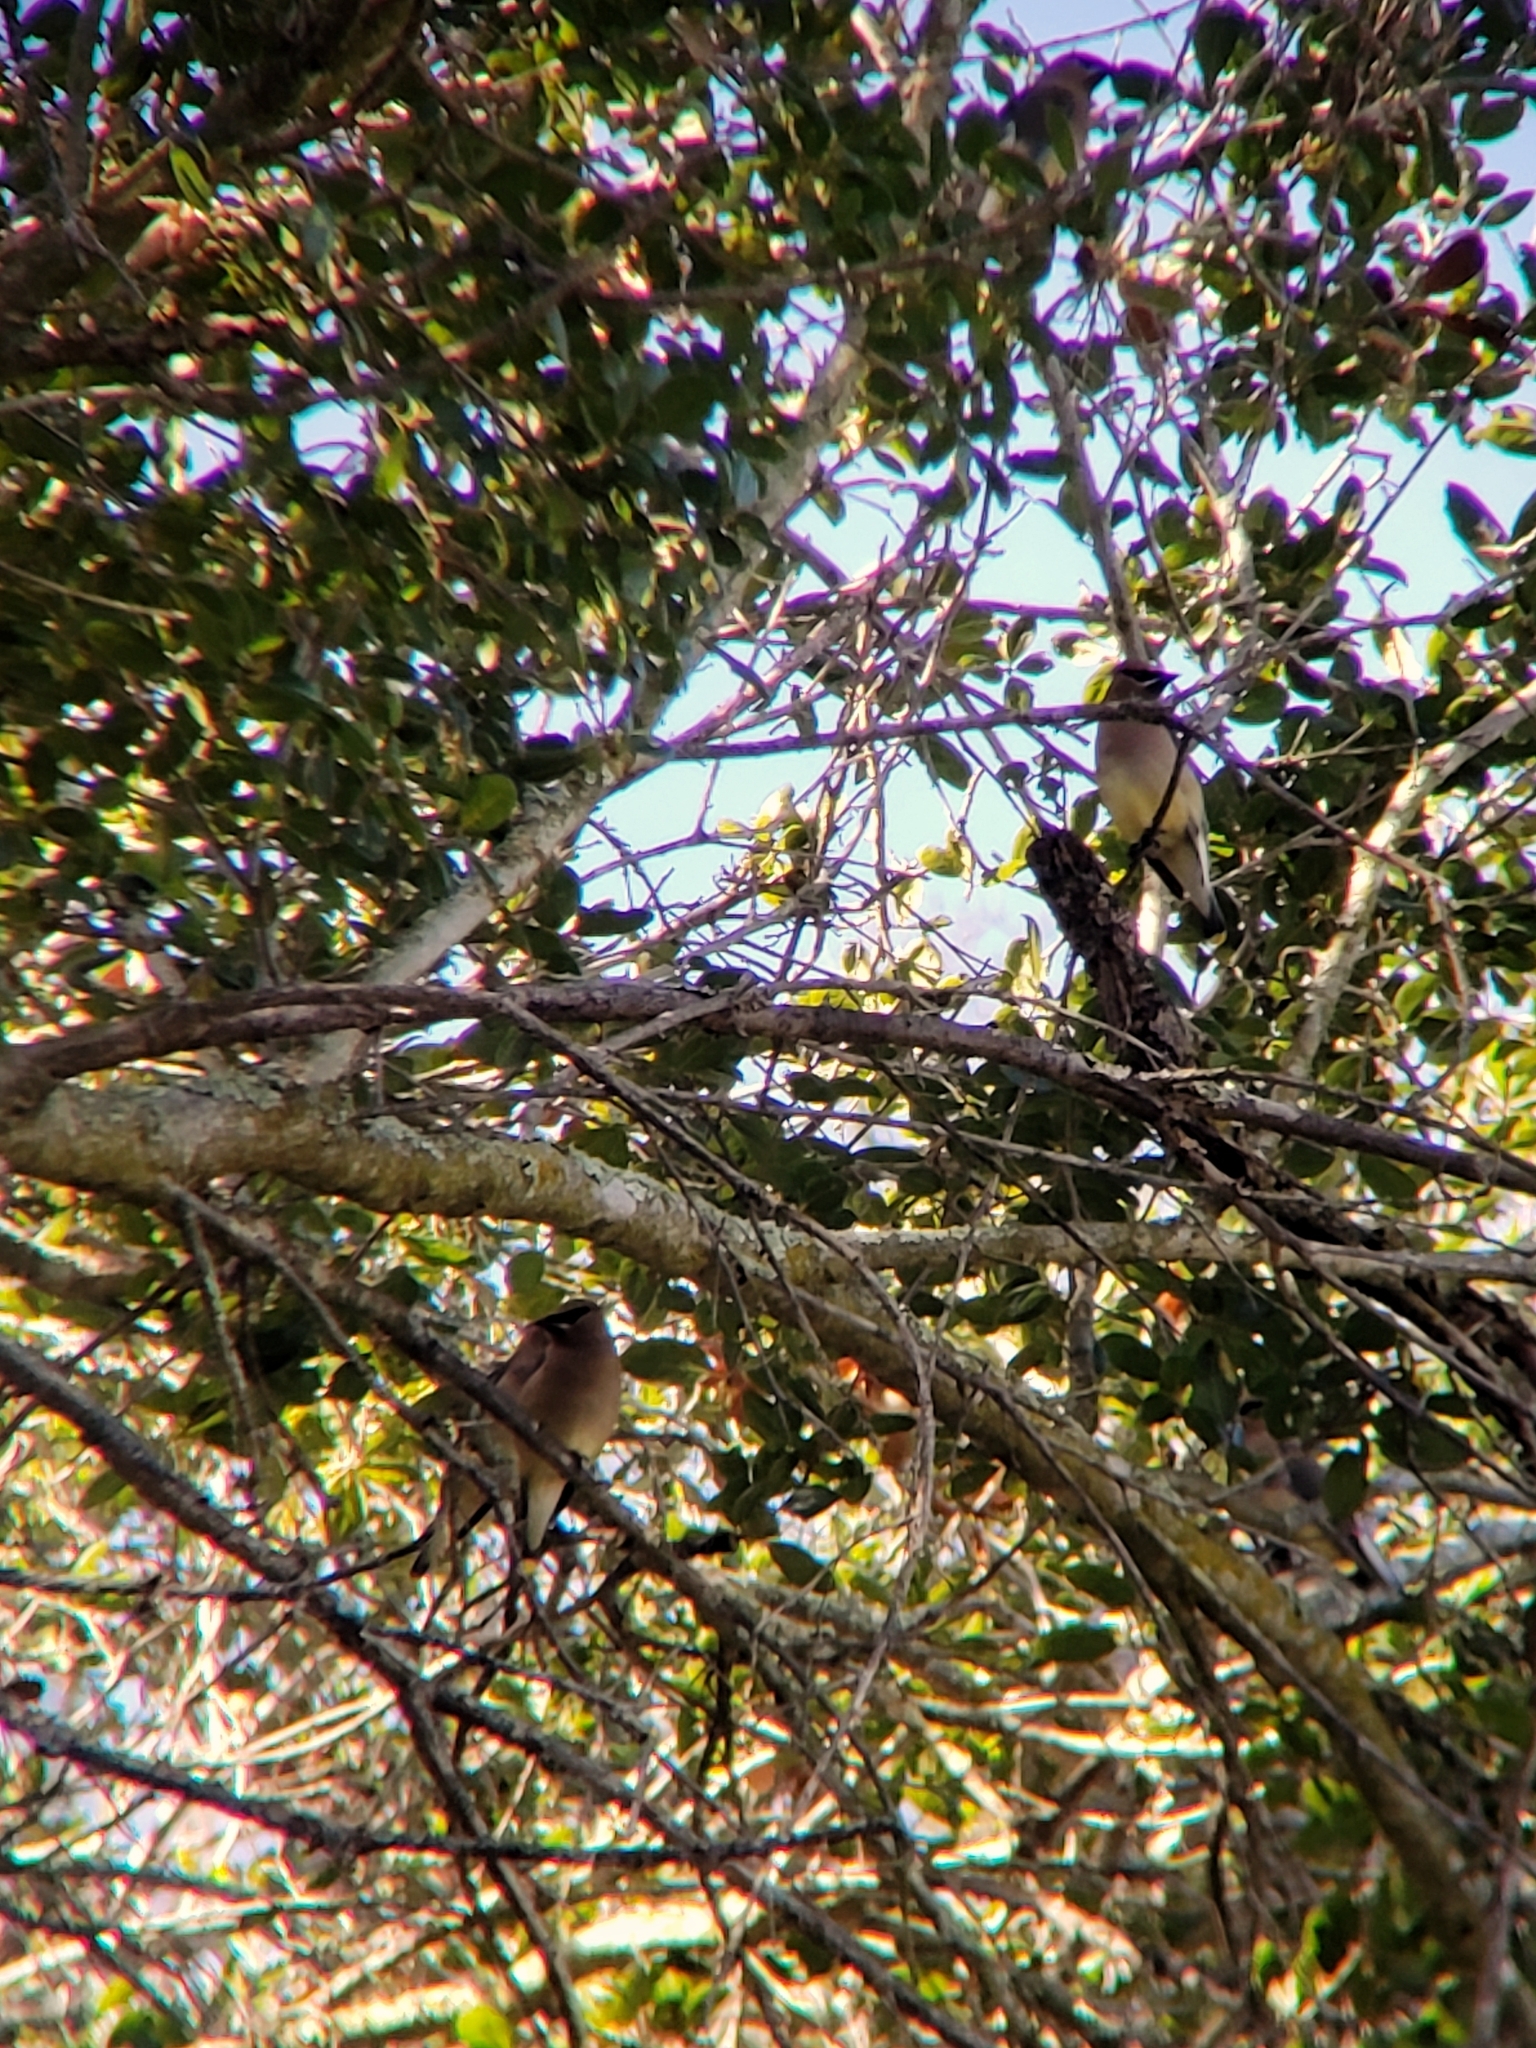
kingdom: Animalia
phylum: Chordata
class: Aves
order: Passeriformes
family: Bombycillidae
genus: Bombycilla
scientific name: Bombycilla cedrorum
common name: Cedar waxwing
